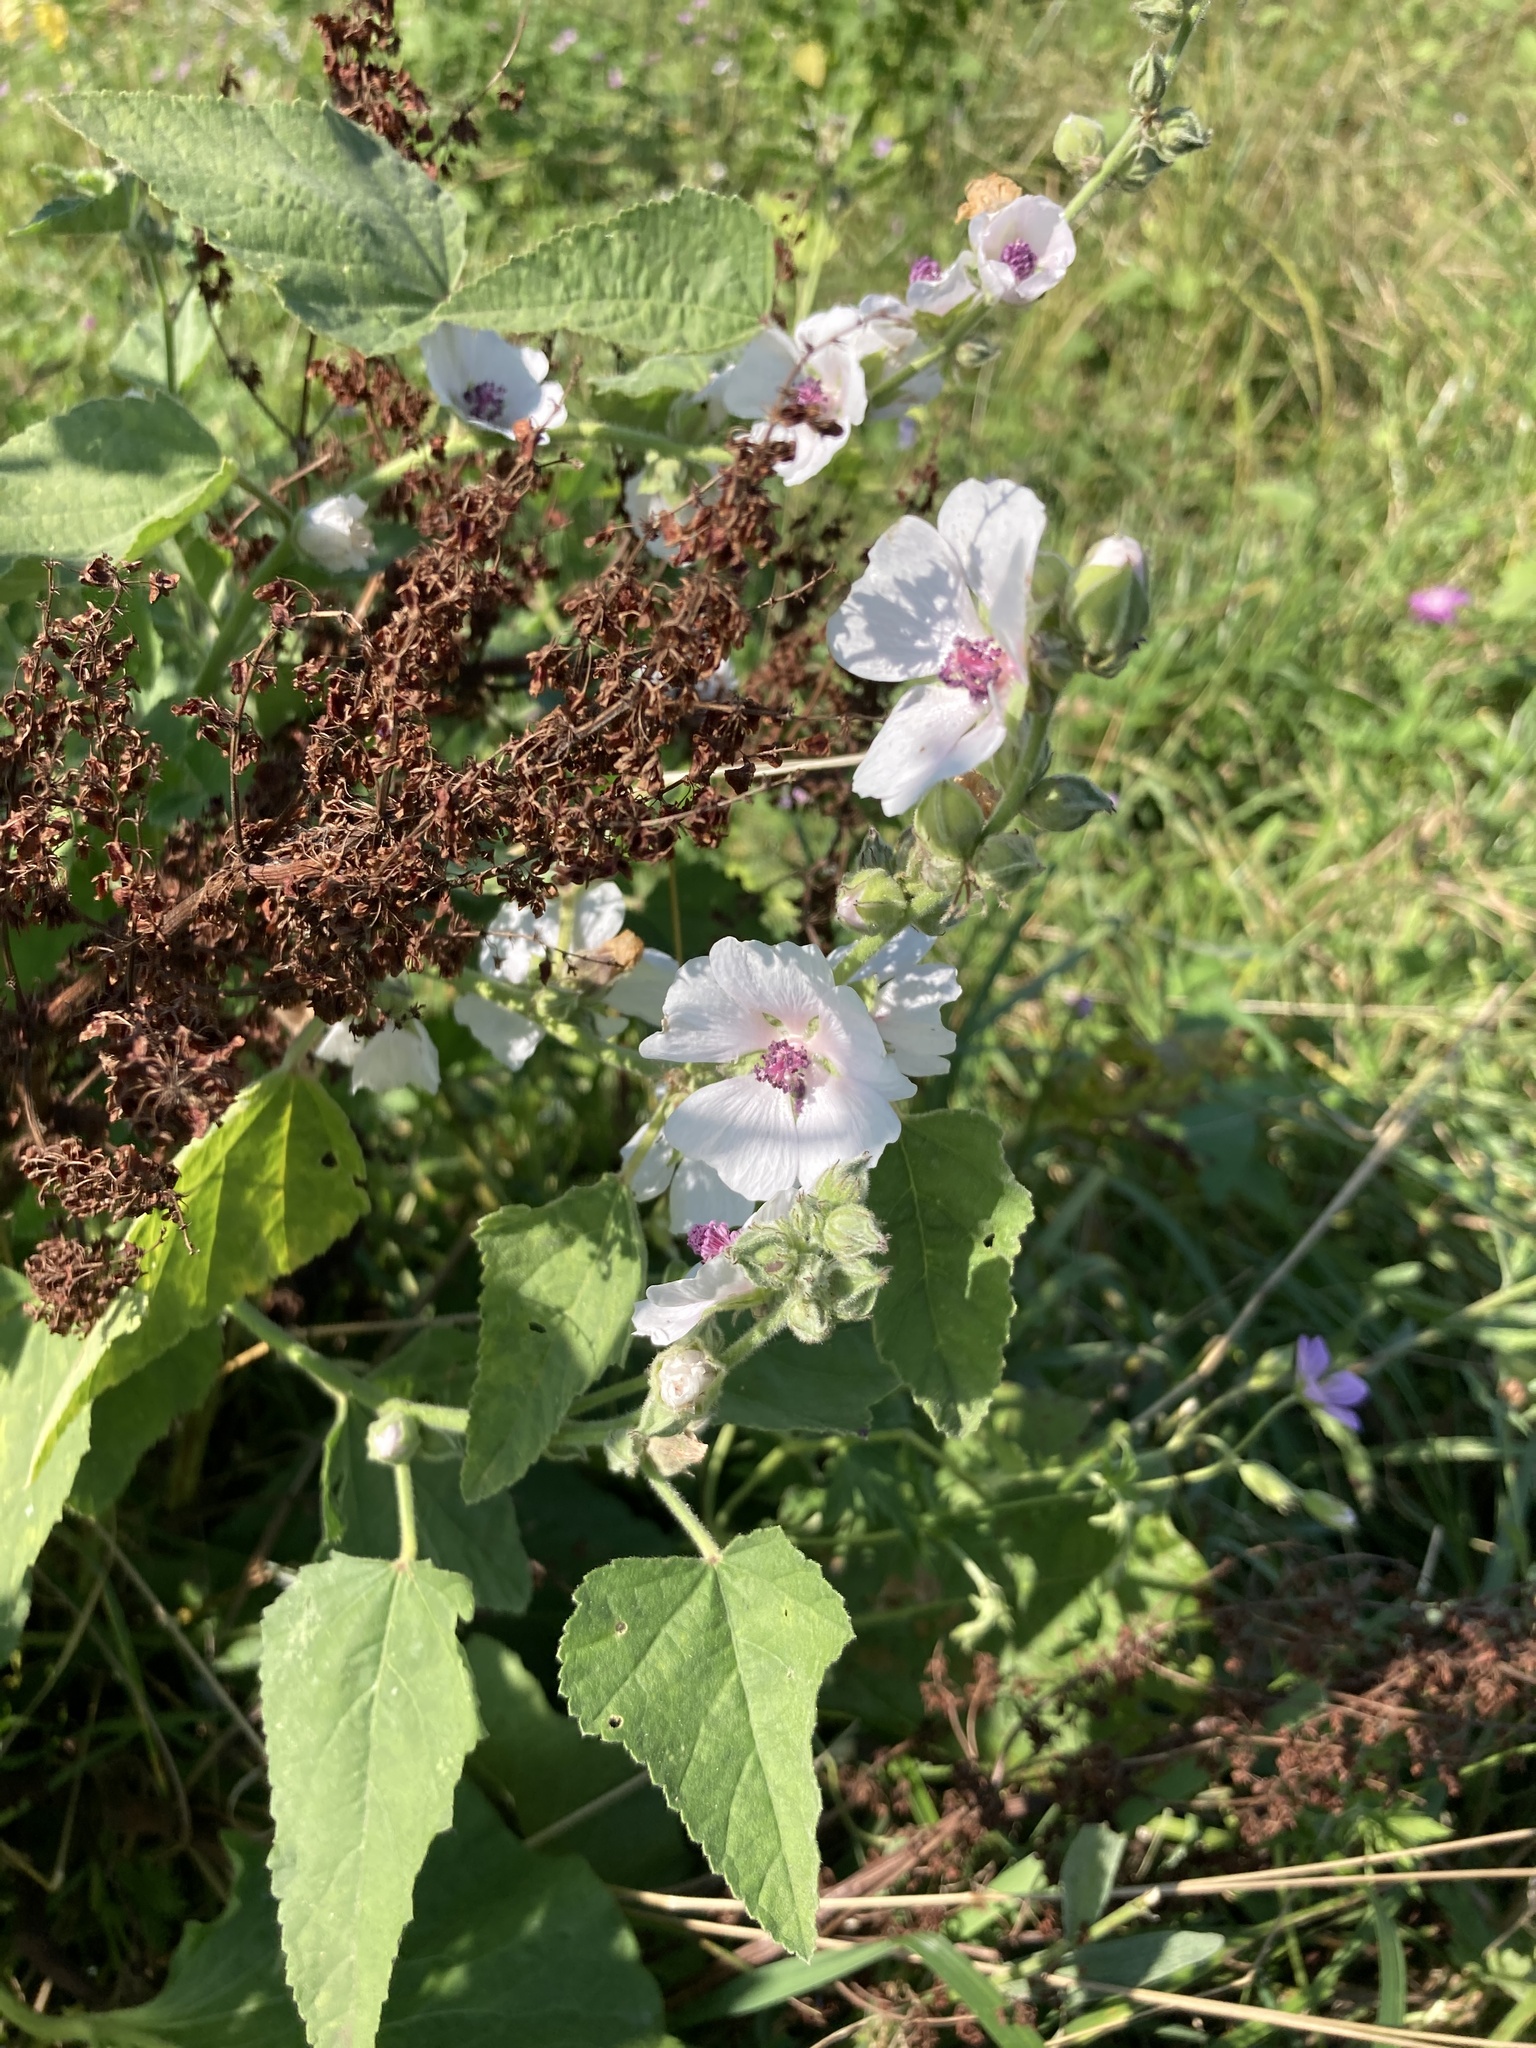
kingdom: Plantae
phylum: Tracheophyta
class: Magnoliopsida
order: Malvales
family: Malvaceae
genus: Althaea
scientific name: Althaea officinalis
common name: Marsh-mallow
